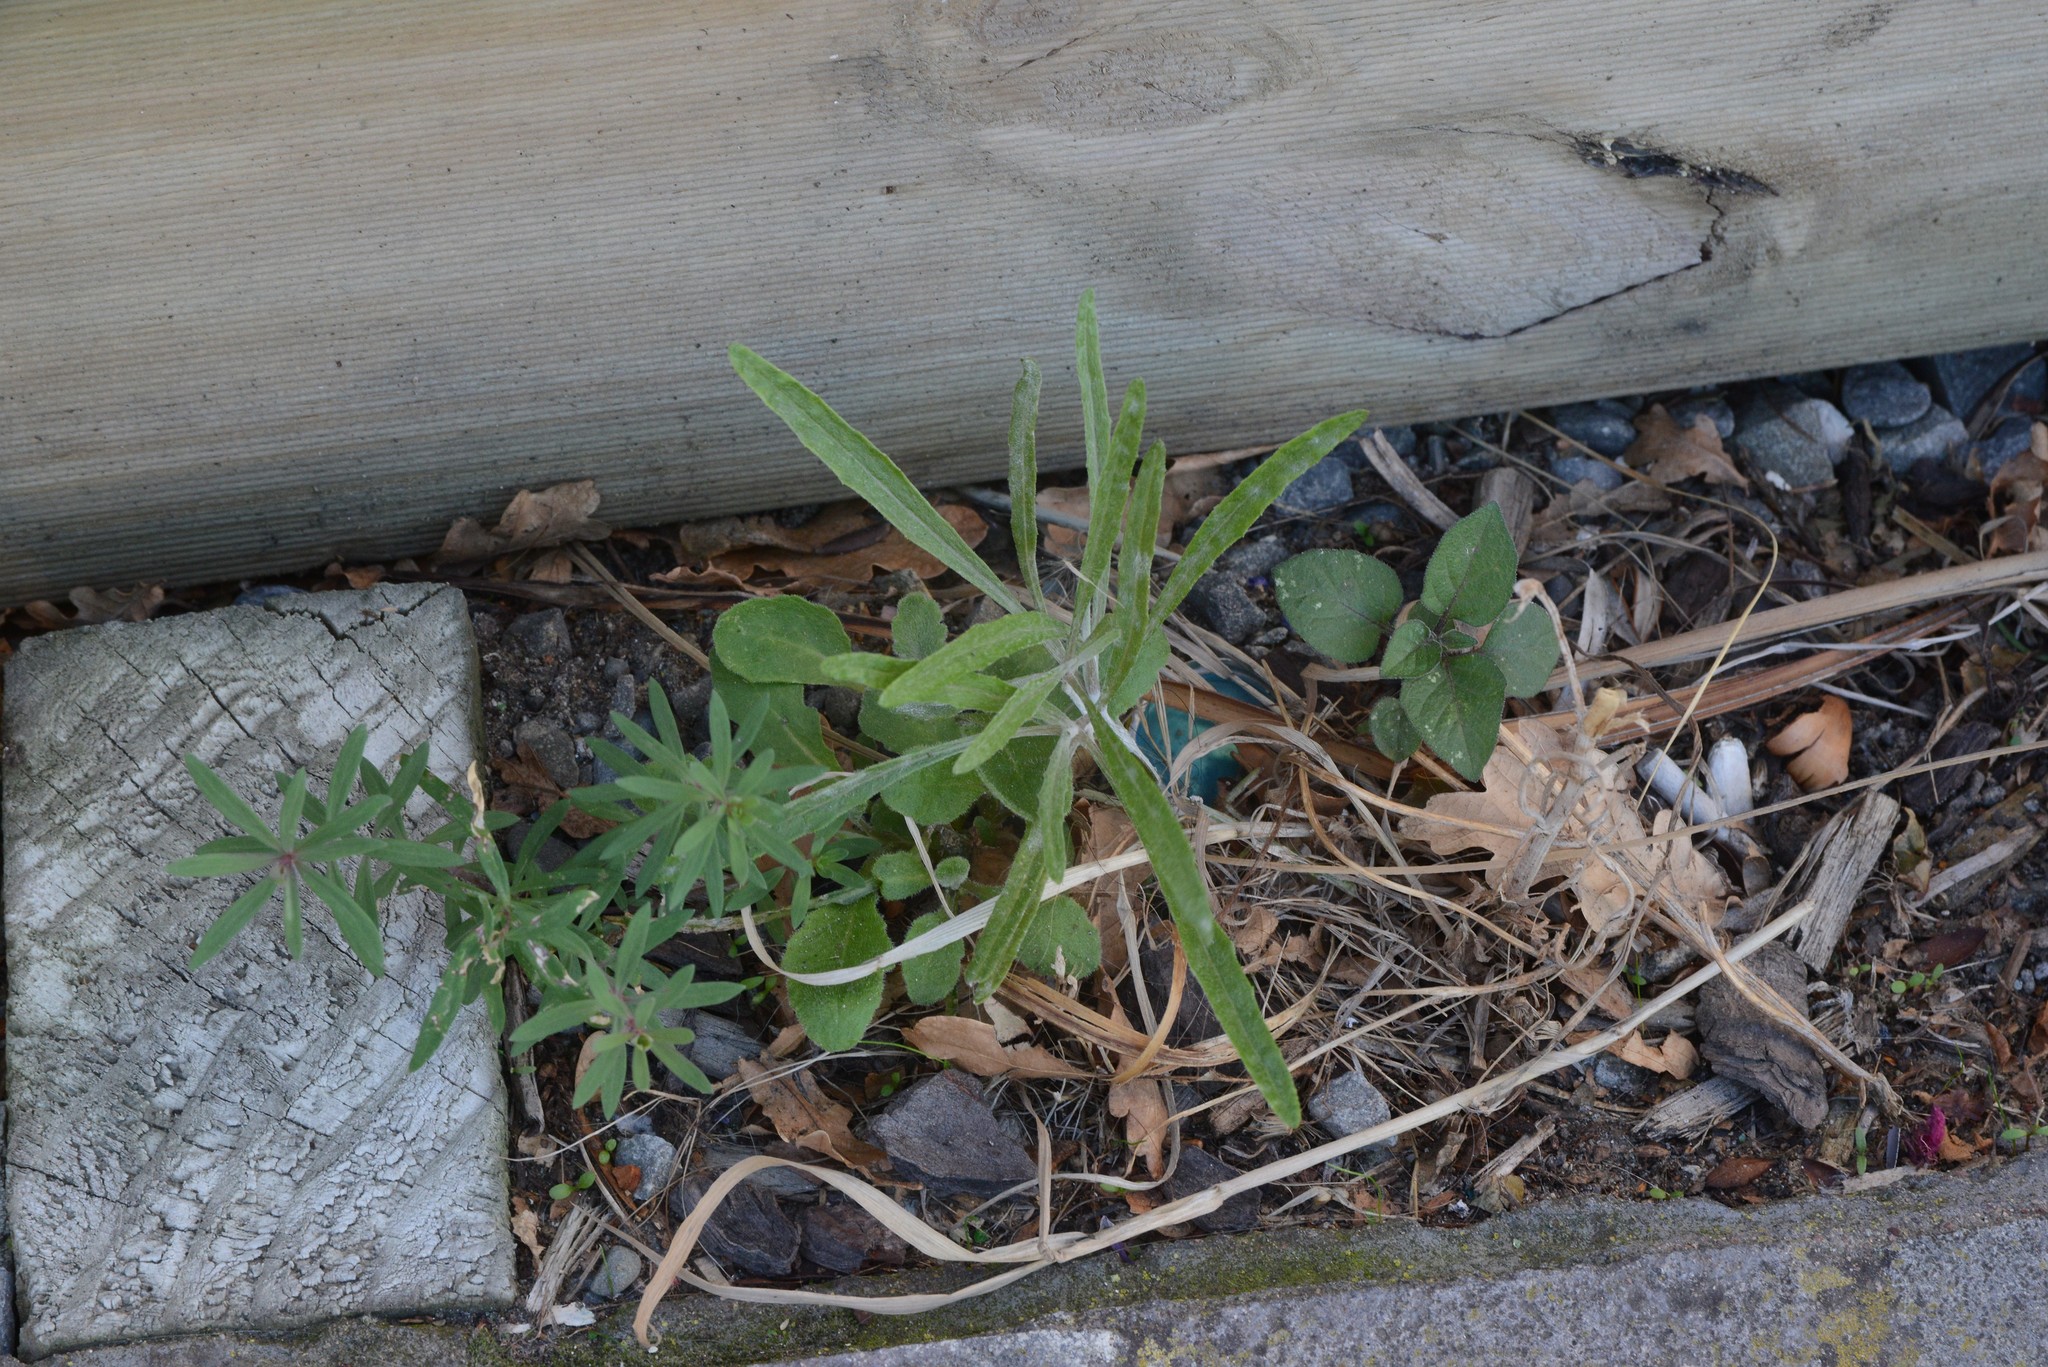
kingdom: Plantae
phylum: Tracheophyta
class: Magnoliopsida
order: Asterales
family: Asteraceae
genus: Senecio
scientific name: Senecio quadridentatus
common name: Cotton fireweed
